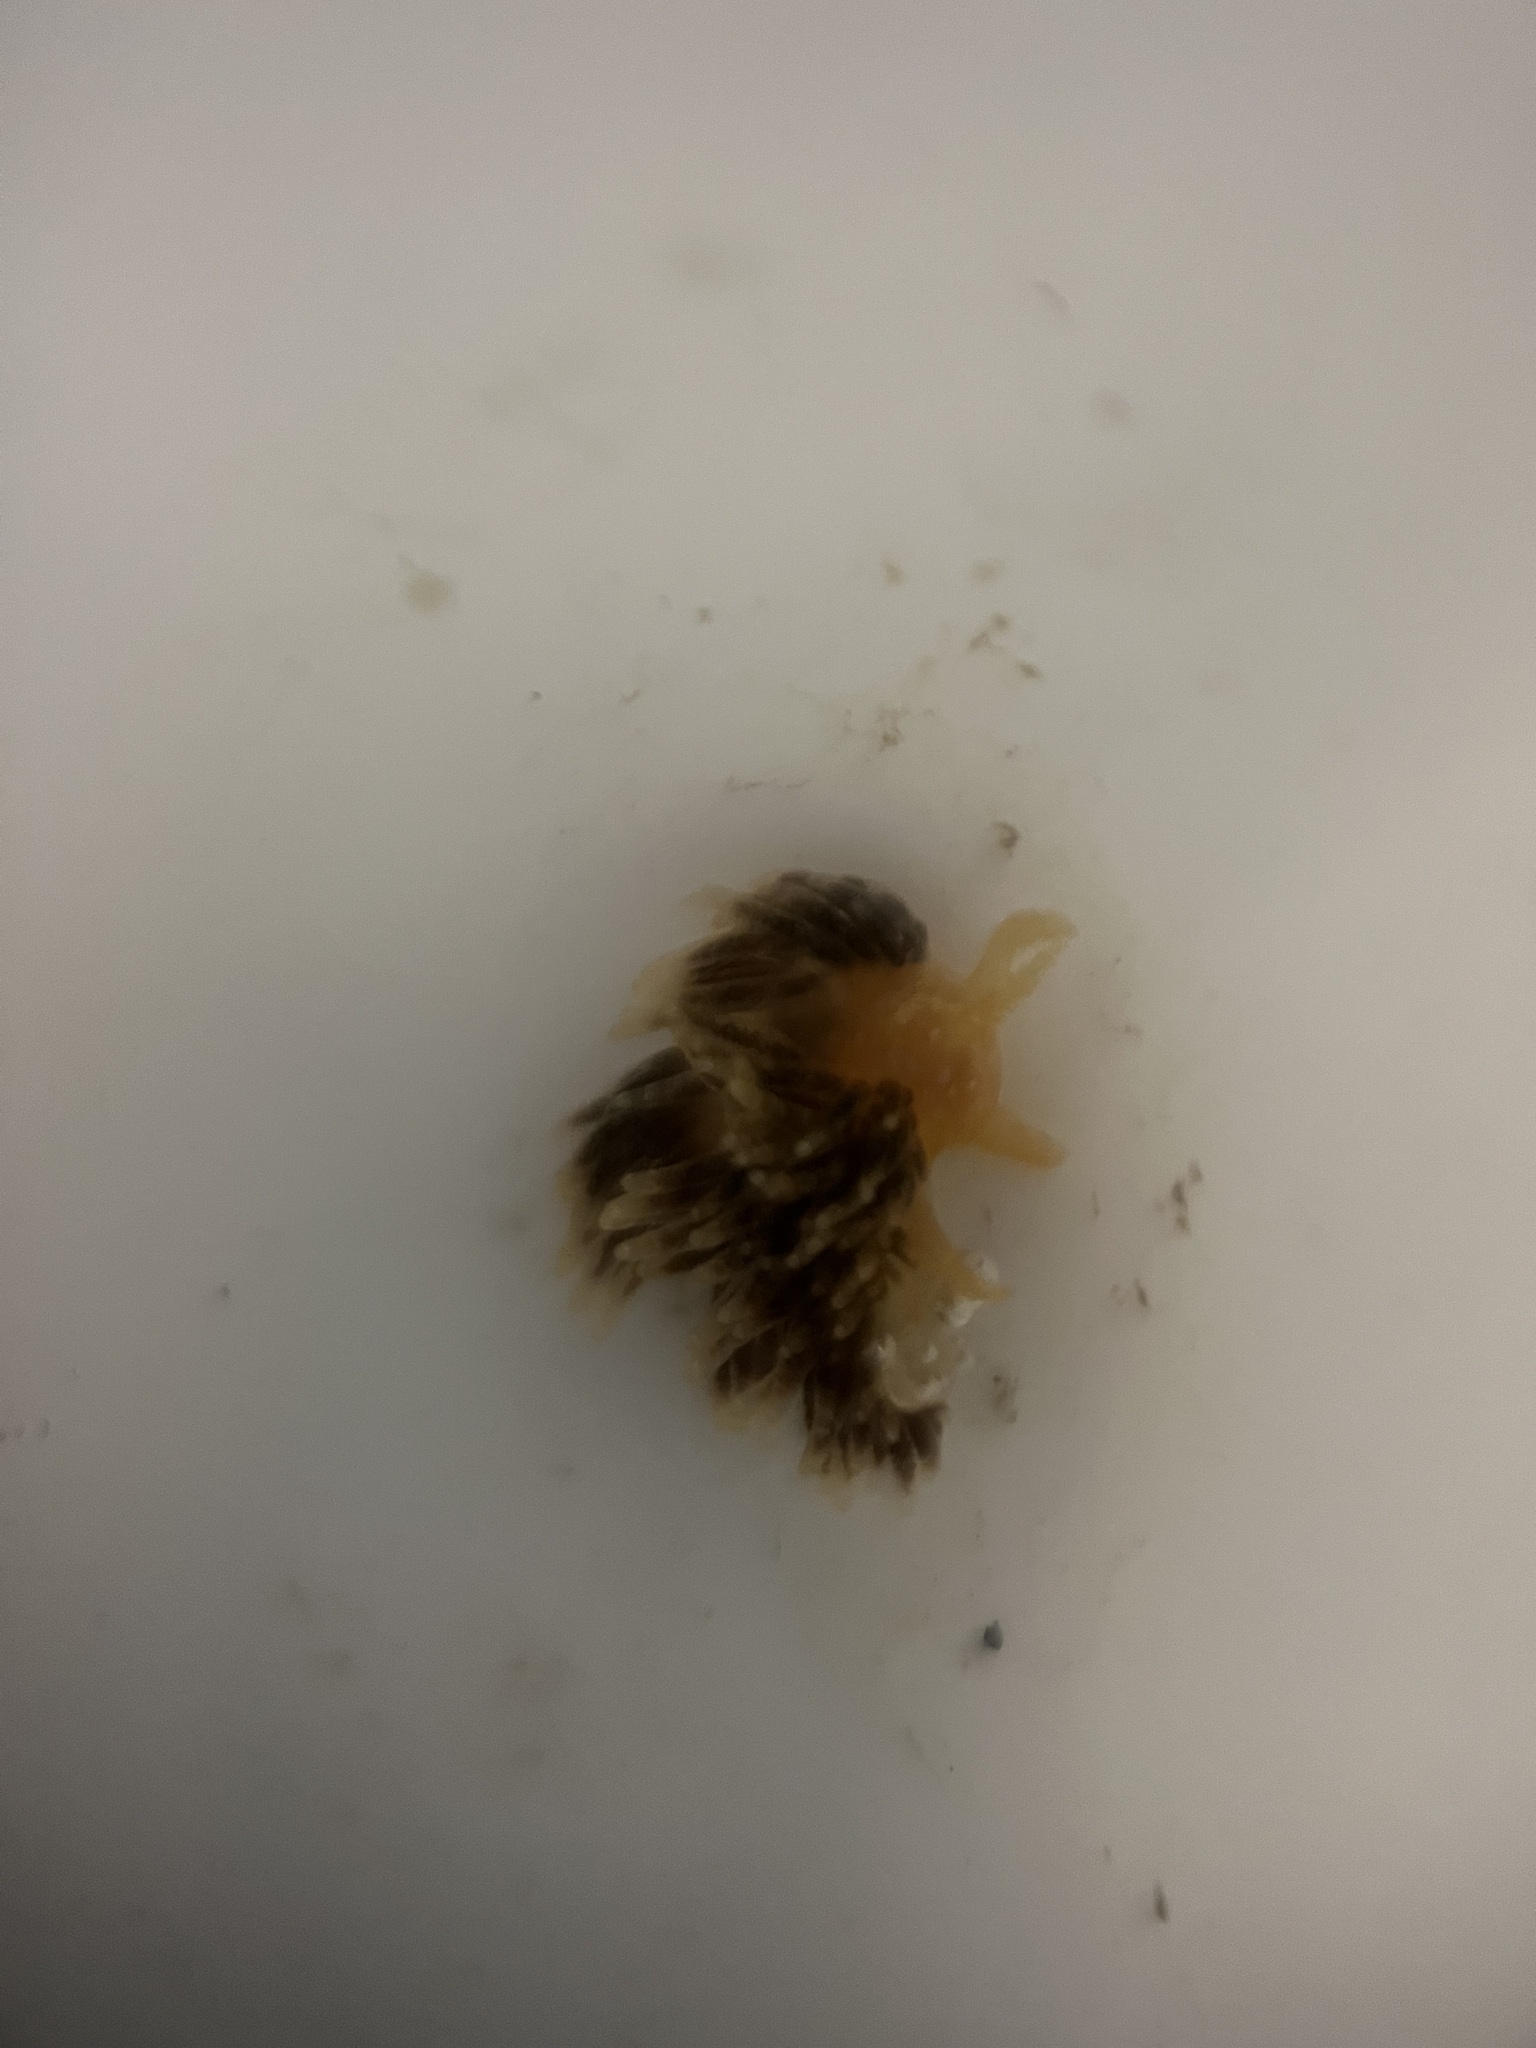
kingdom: Animalia
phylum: Mollusca
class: Gastropoda
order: Nudibranchia
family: Facelinidae
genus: Austraeolis
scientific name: Austraeolis ornata
